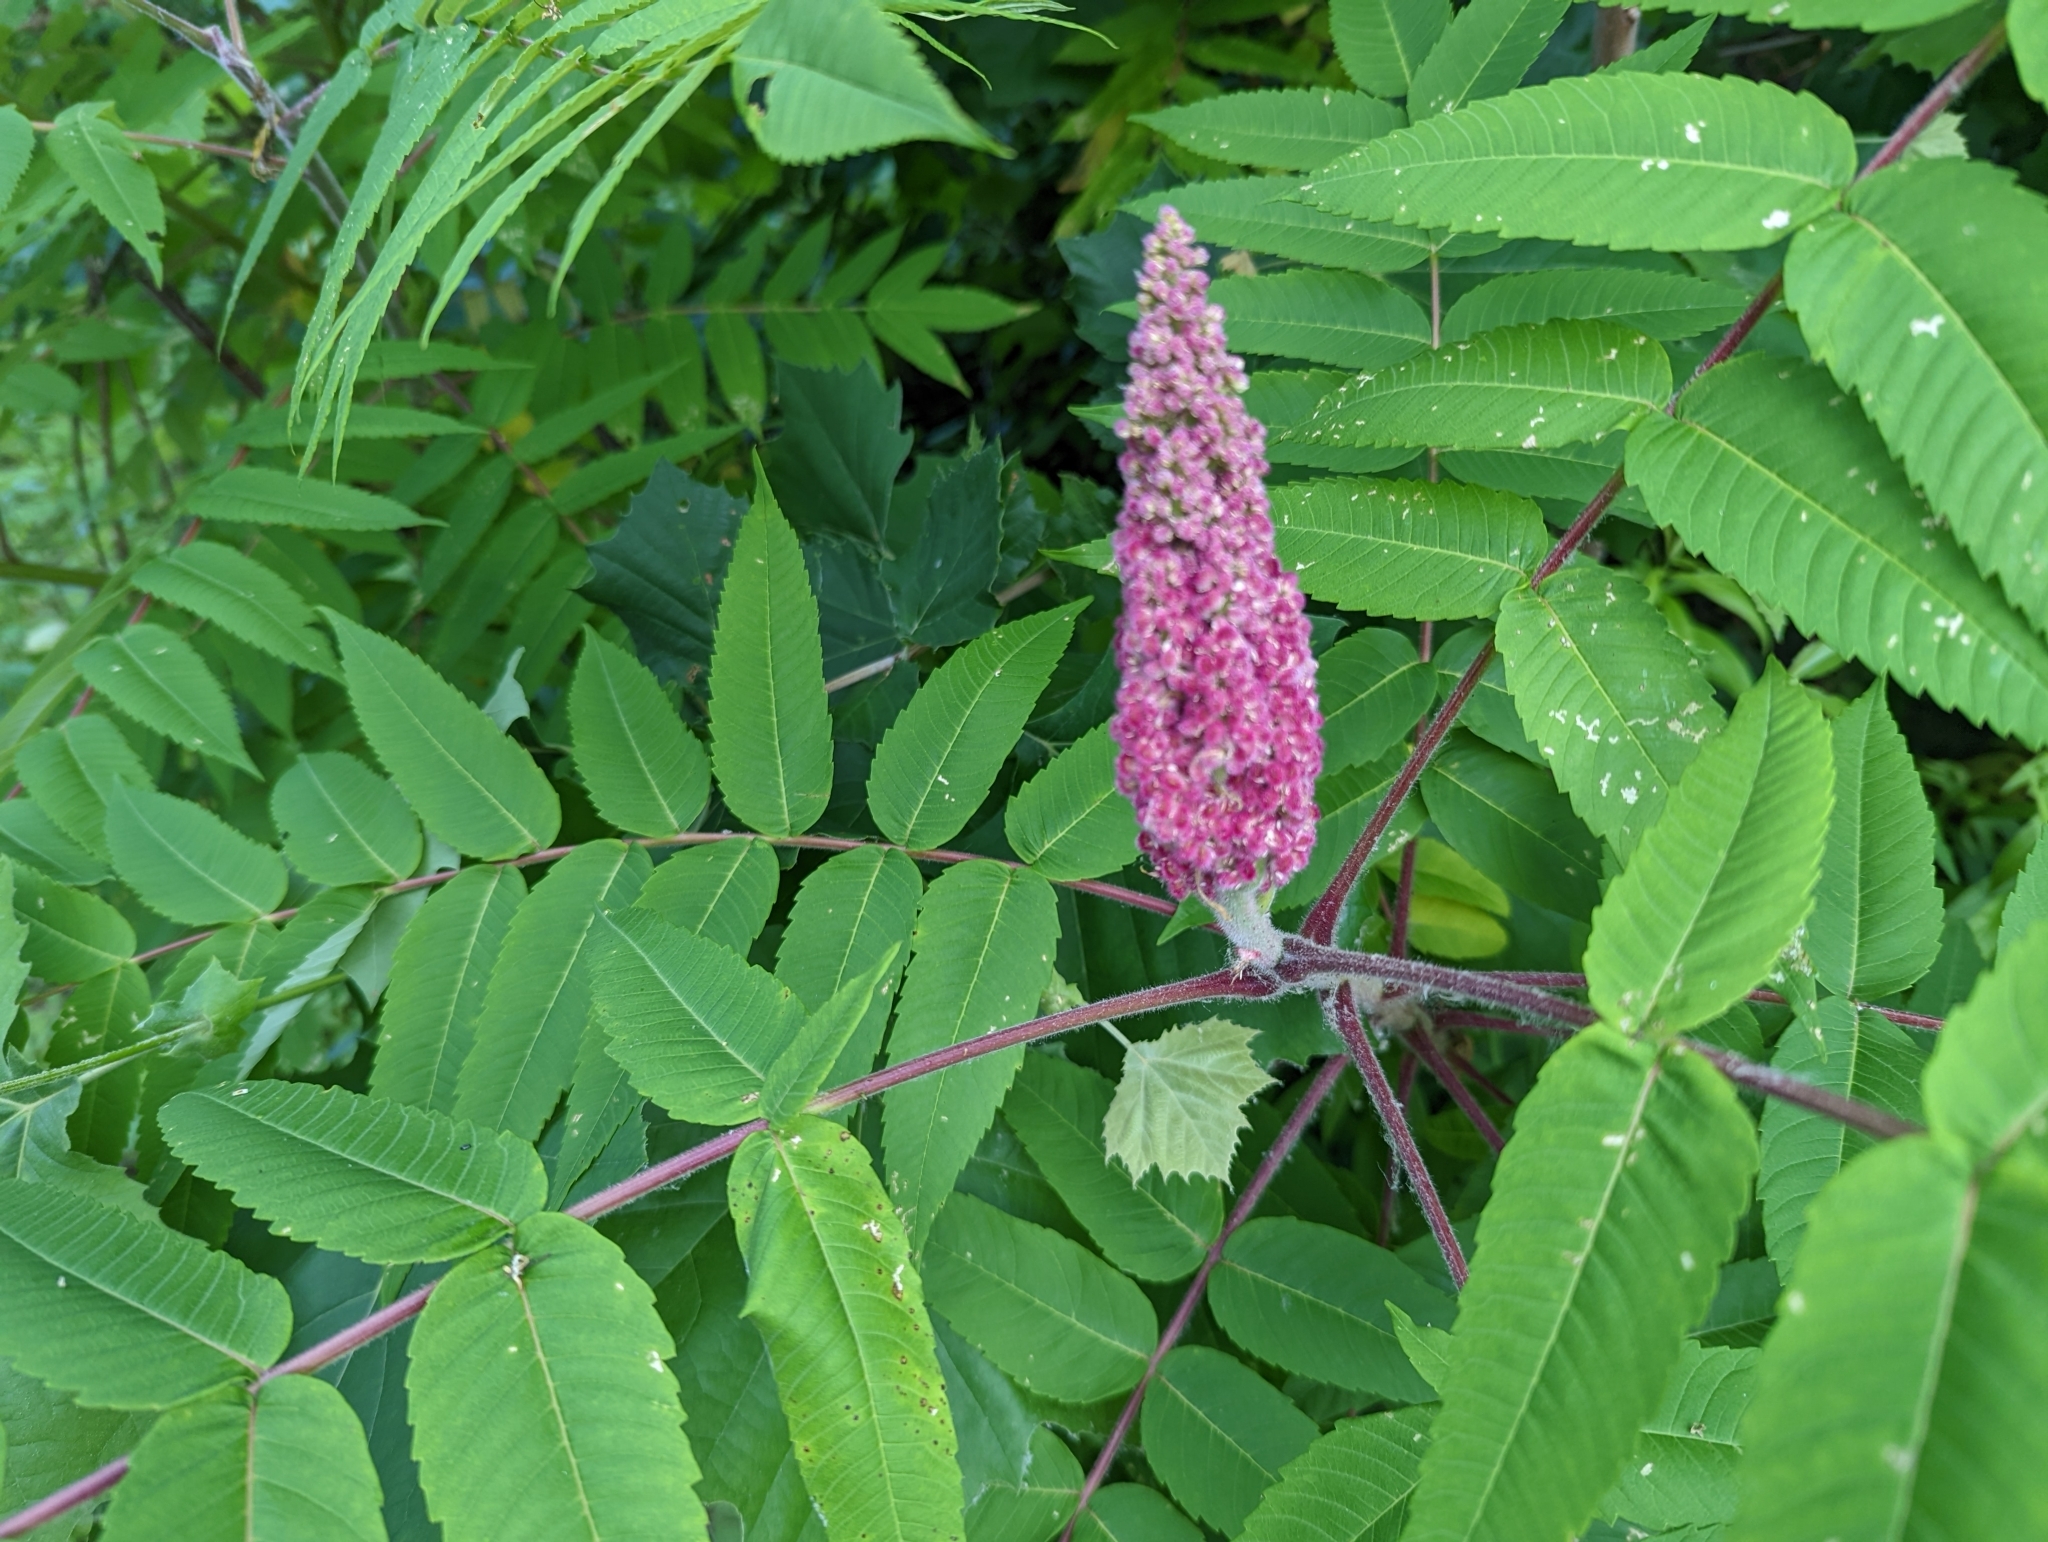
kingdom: Plantae
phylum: Tracheophyta
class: Magnoliopsida
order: Sapindales
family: Anacardiaceae
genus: Rhus
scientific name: Rhus typhina
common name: Staghorn sumac
